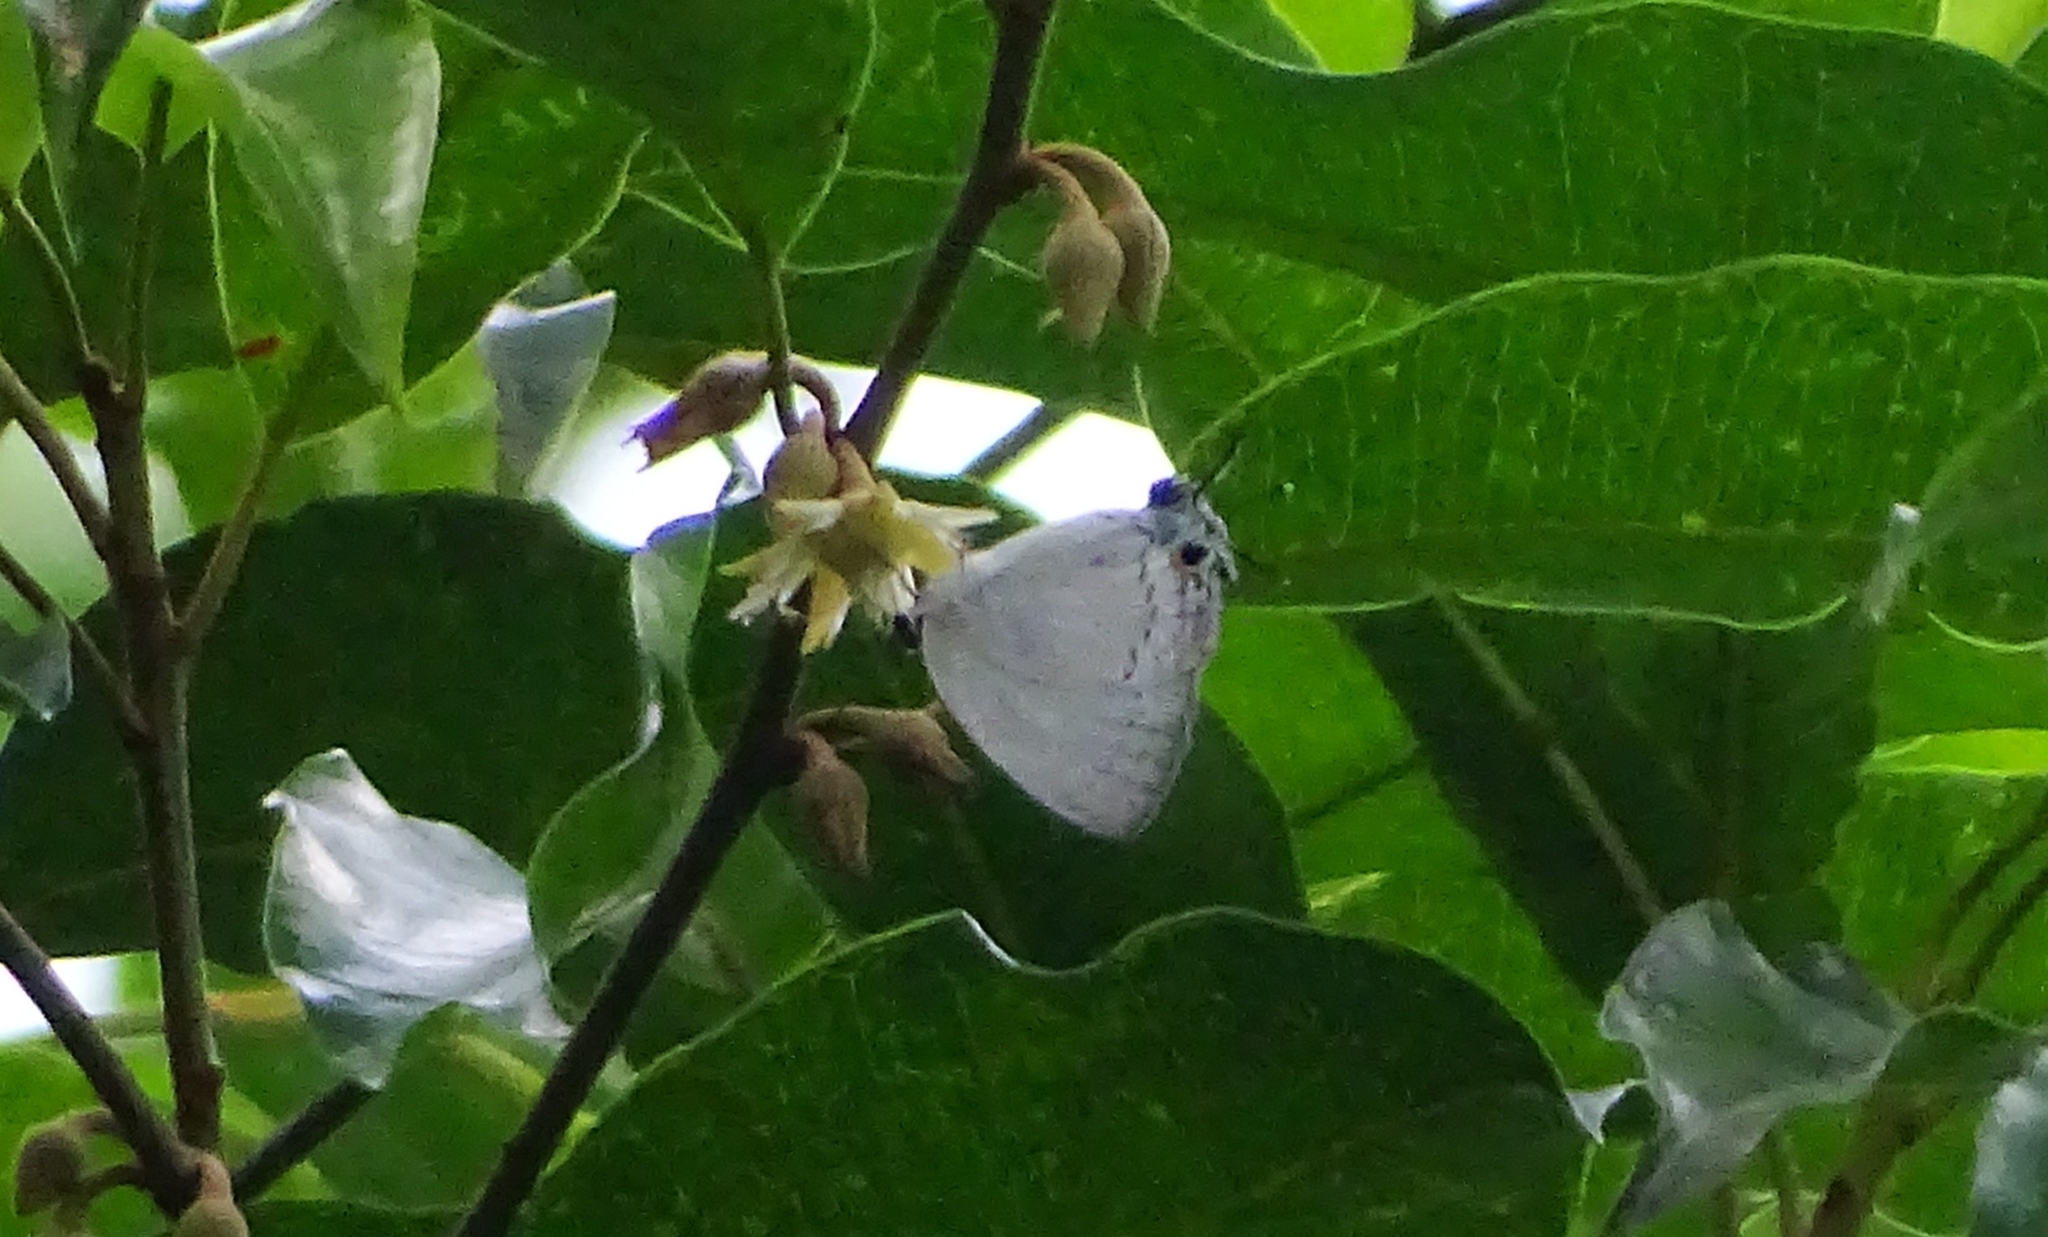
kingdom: Animalia
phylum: Arthropoda
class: Insecta
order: Lepidoptera
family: Lycaenidae
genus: Tajuria
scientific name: Tajuria cippus
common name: Peacock royal
